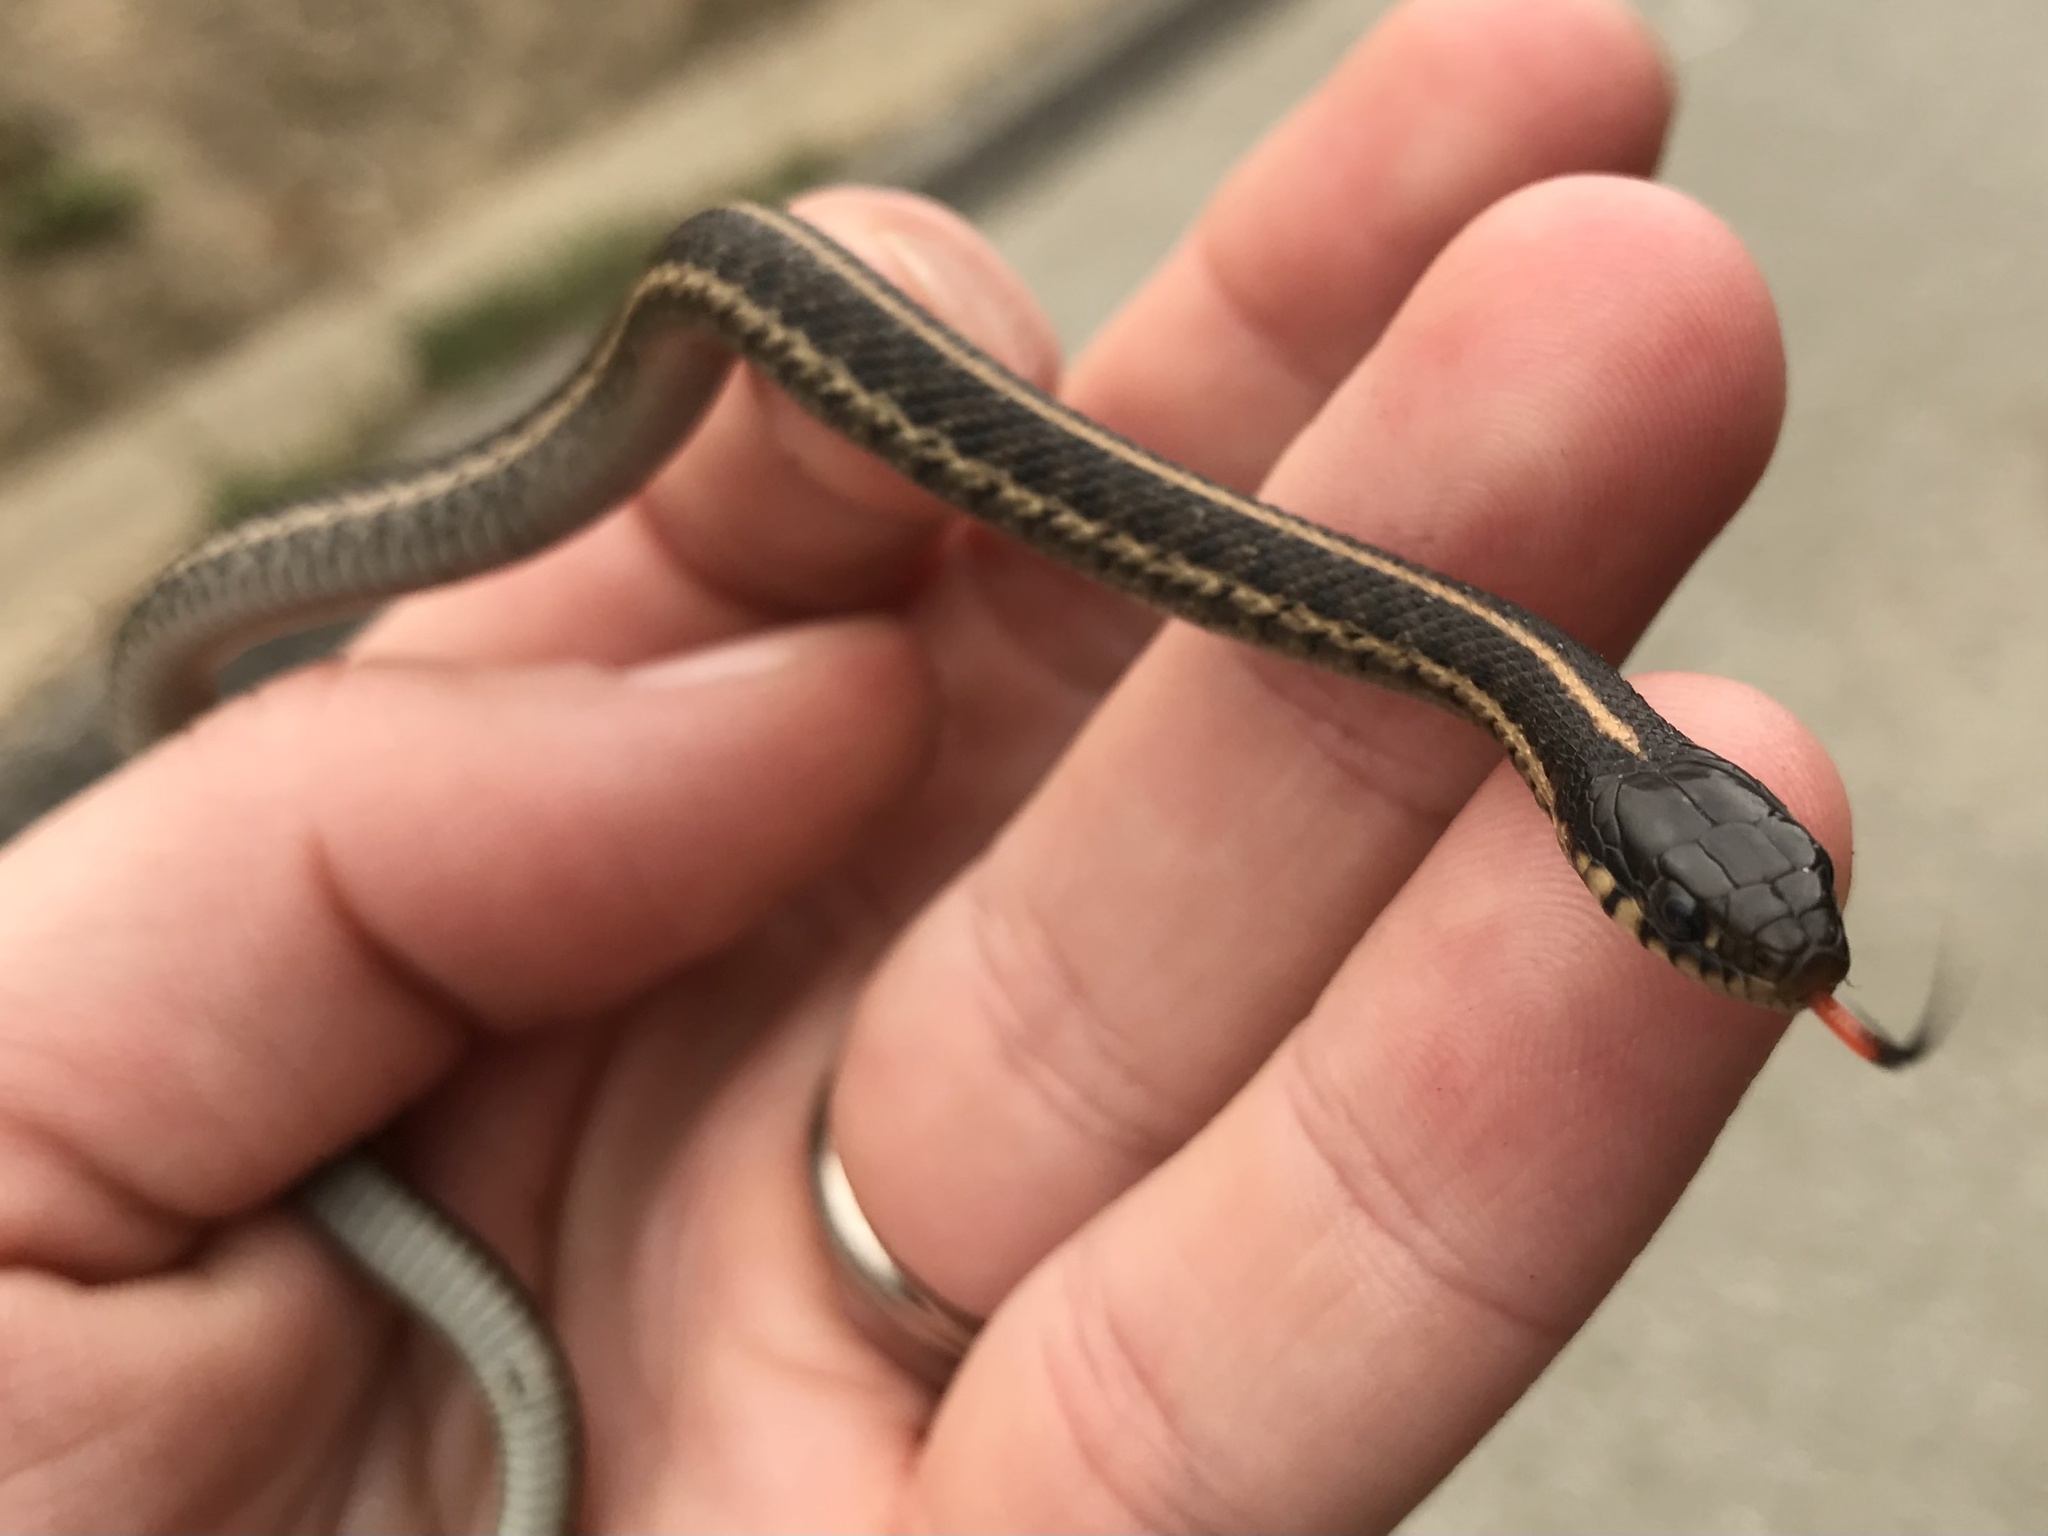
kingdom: Animalia
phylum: Chordata
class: Squamata
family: Colubridae
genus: Thamnophis
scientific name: Thamnophis elegans
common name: Western terrestrial garter snake
